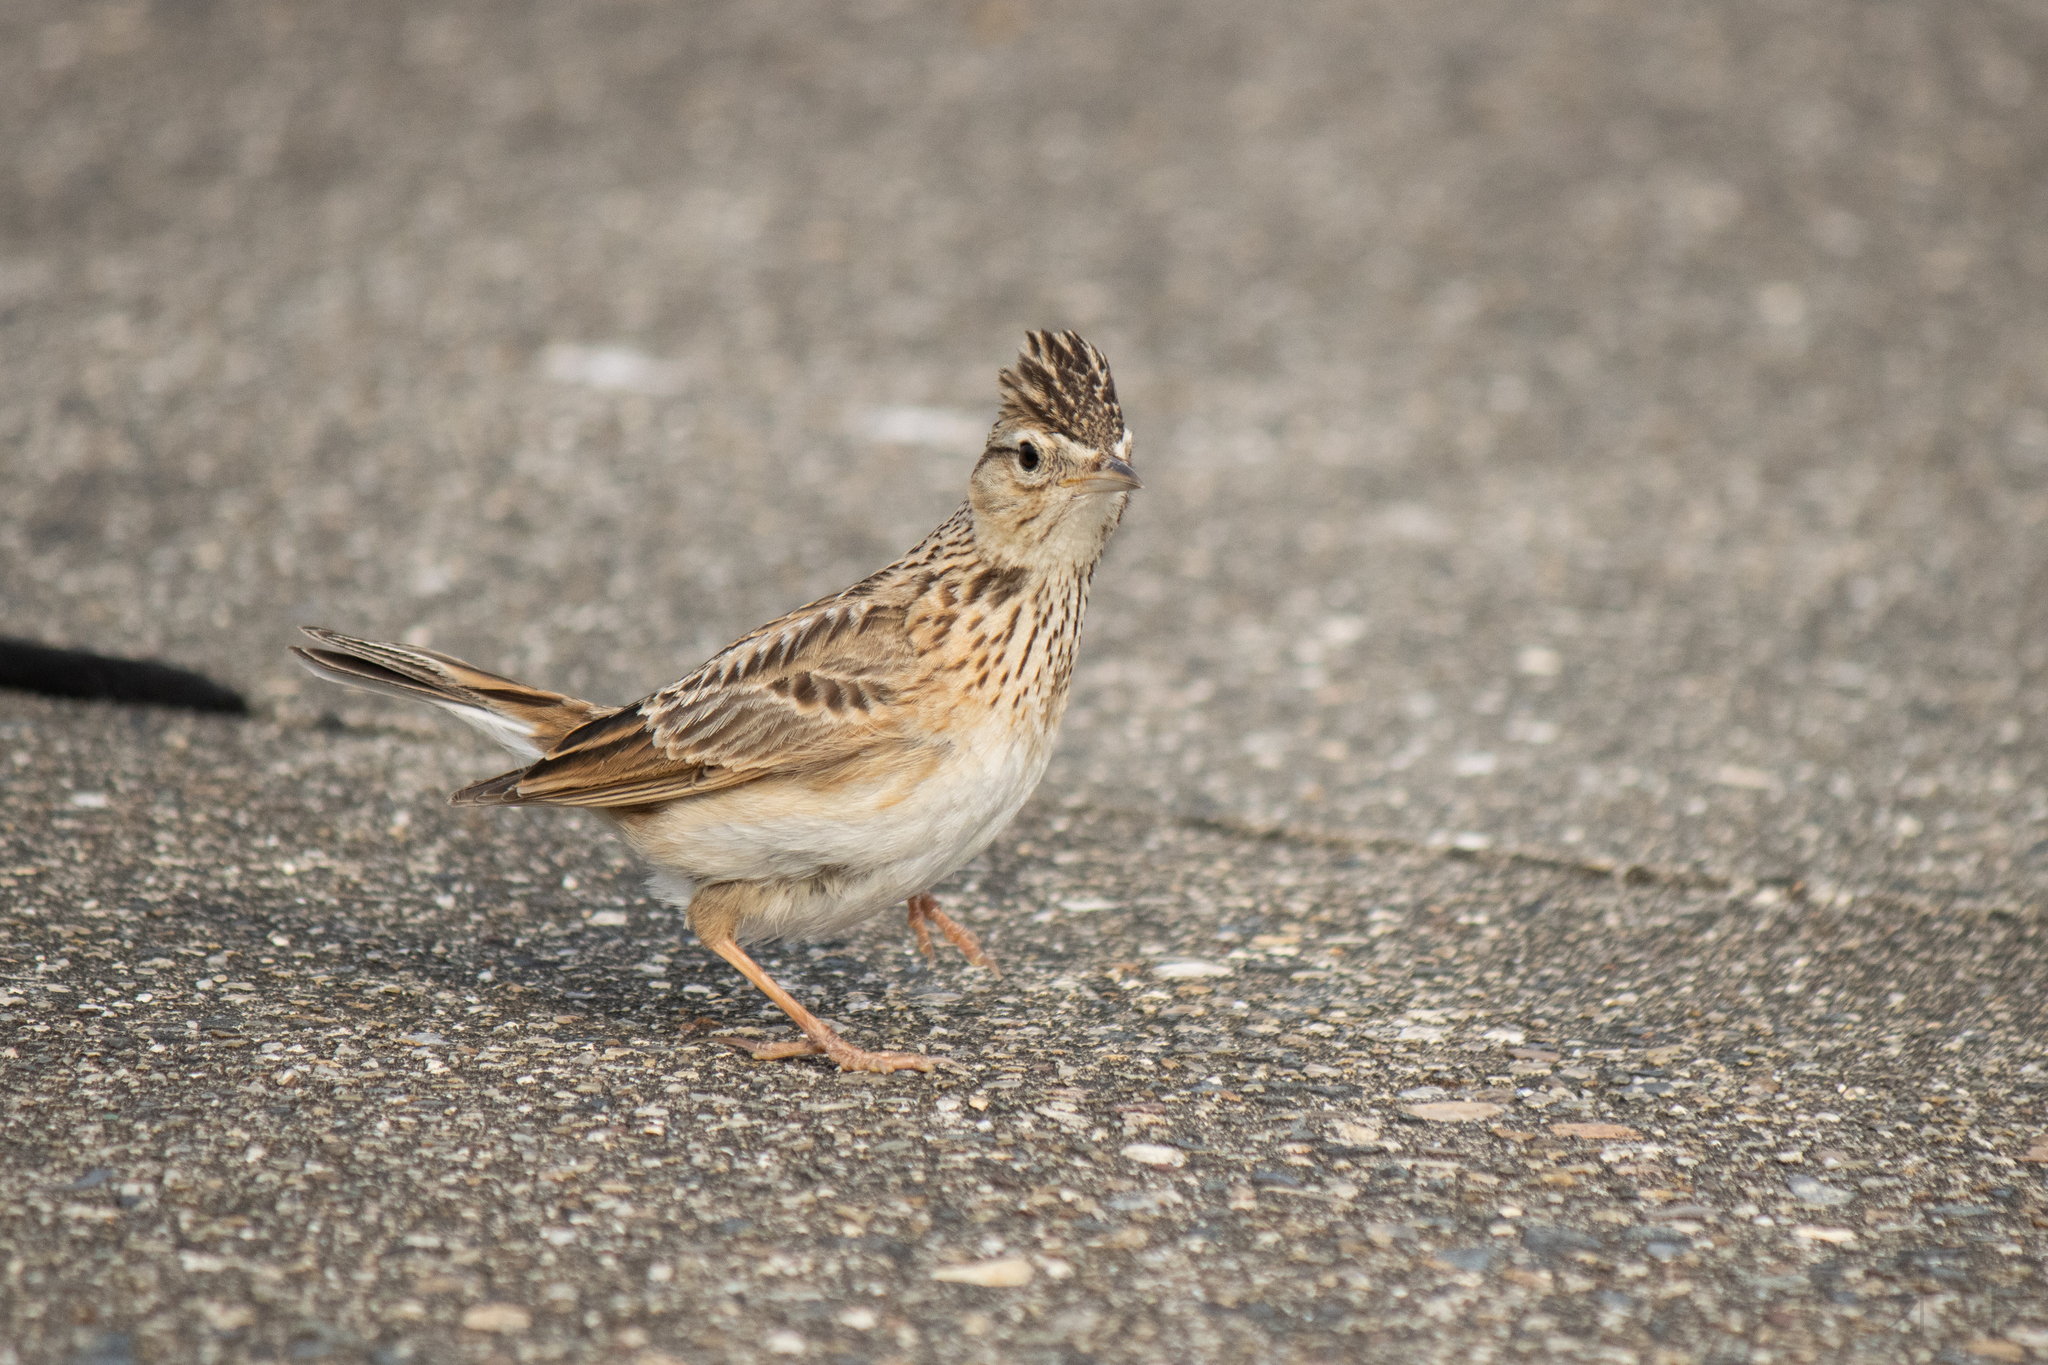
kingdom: Animalia
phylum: Chordata
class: Aves
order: Passeriformes
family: Alaudidae
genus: Alauda
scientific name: Alauda arvensis
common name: Eurasian skylark
